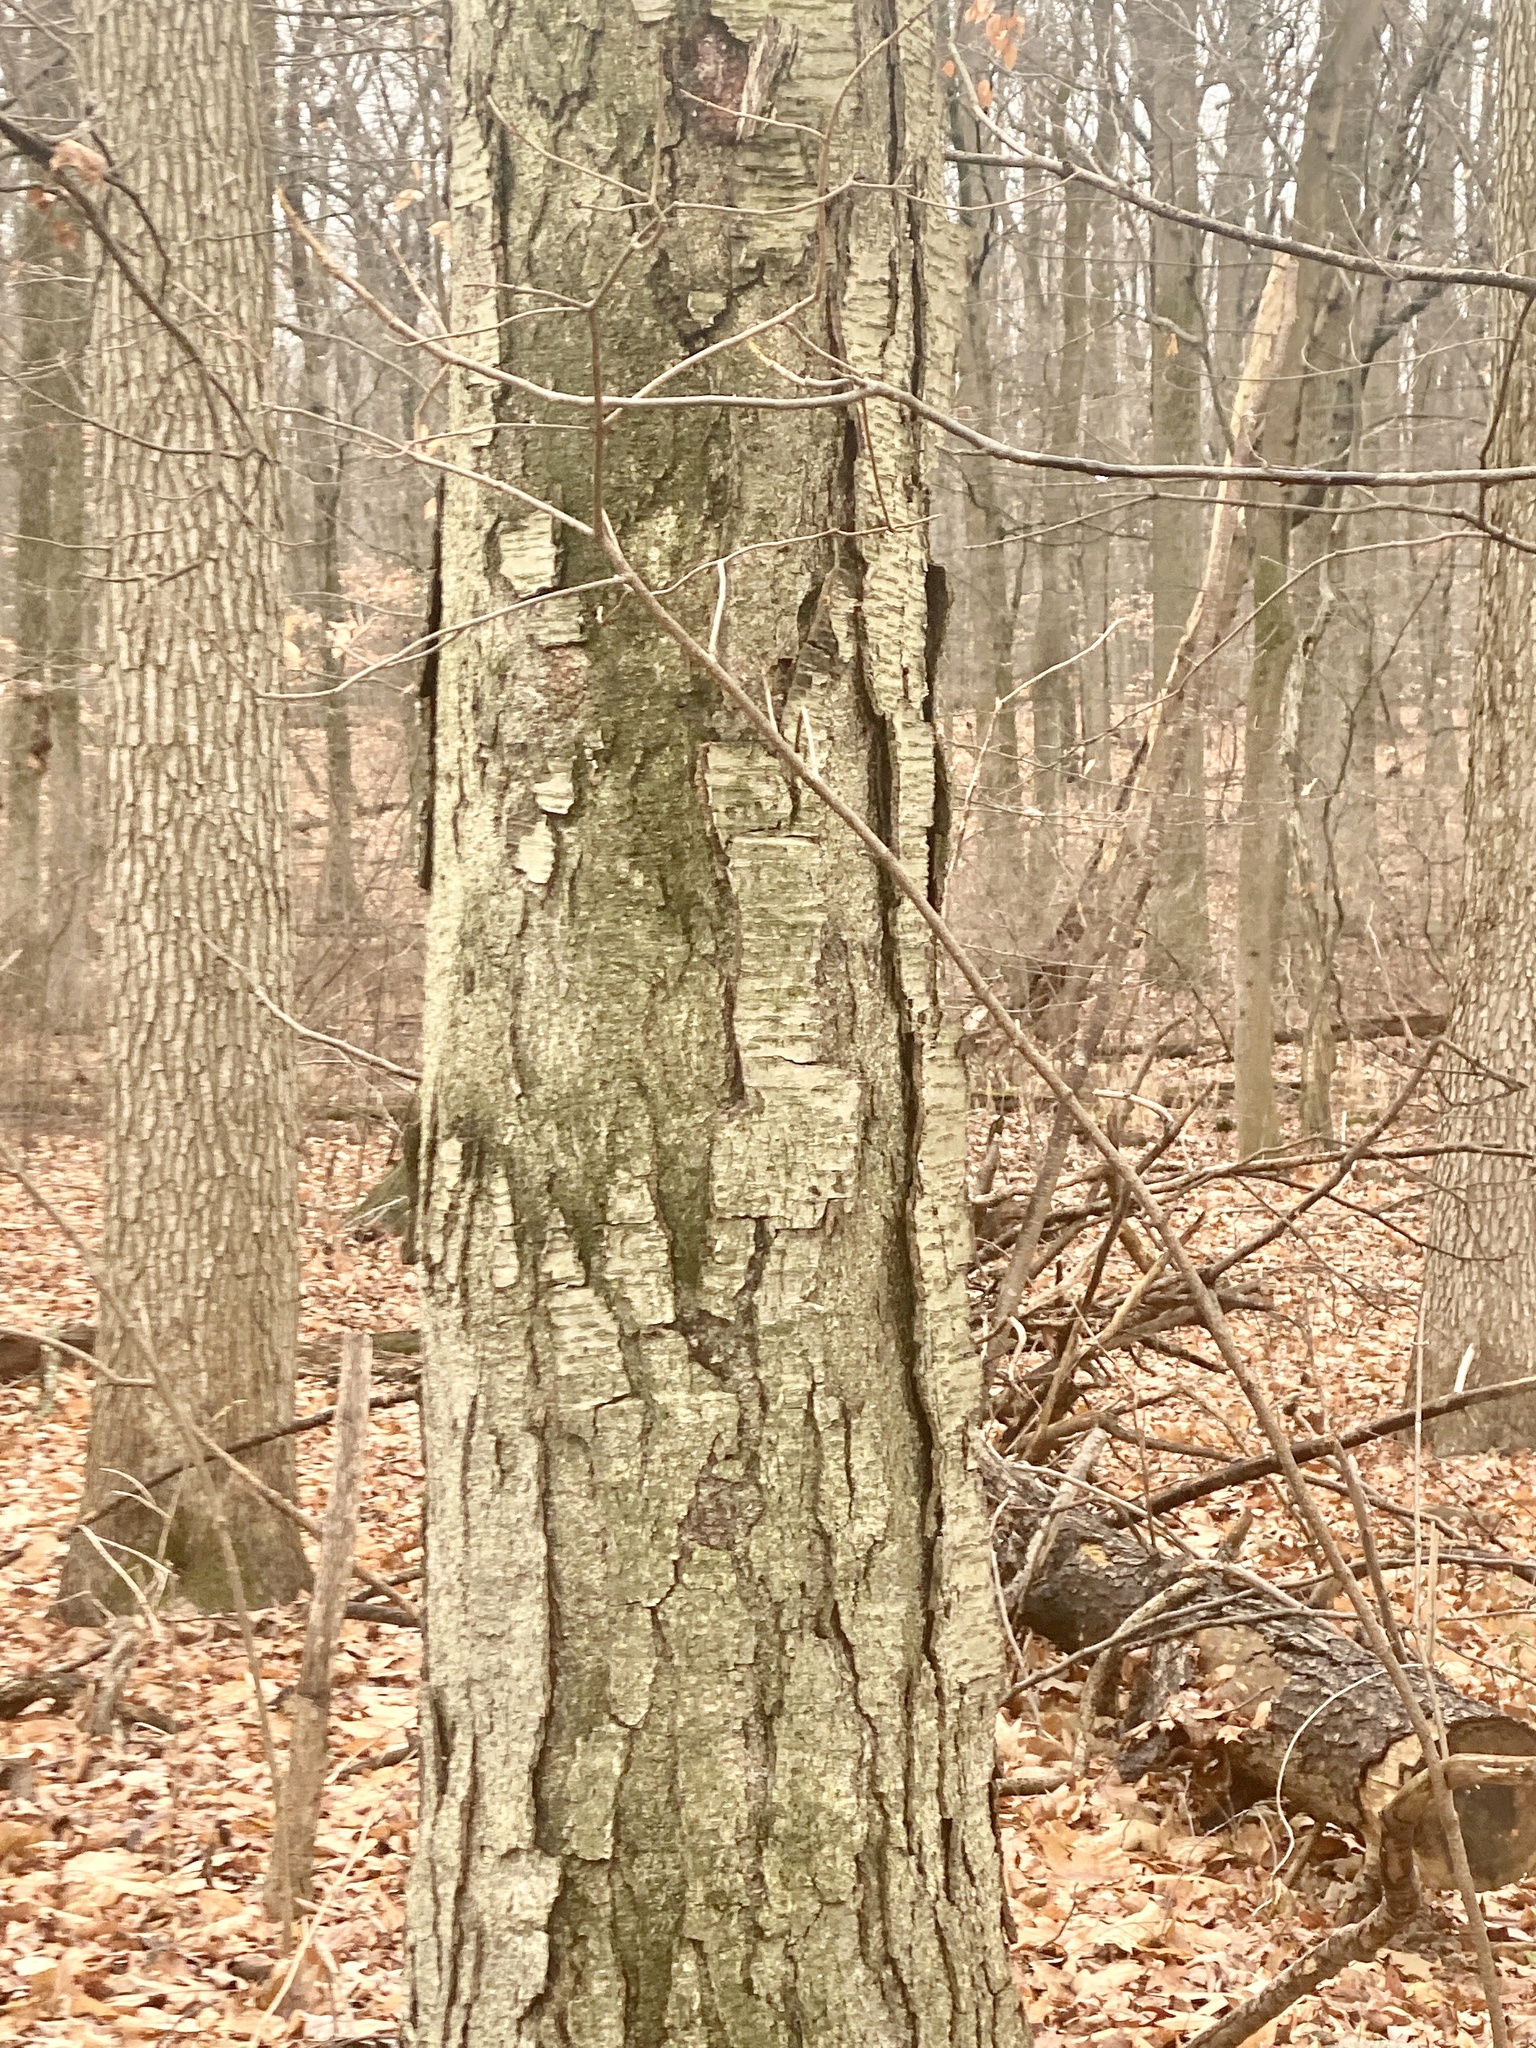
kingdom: Plantae
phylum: Tracheophyta
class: Magnoliopsida
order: Fagales
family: Betulaceae
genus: Betula
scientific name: Betula lenta
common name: Black birch
